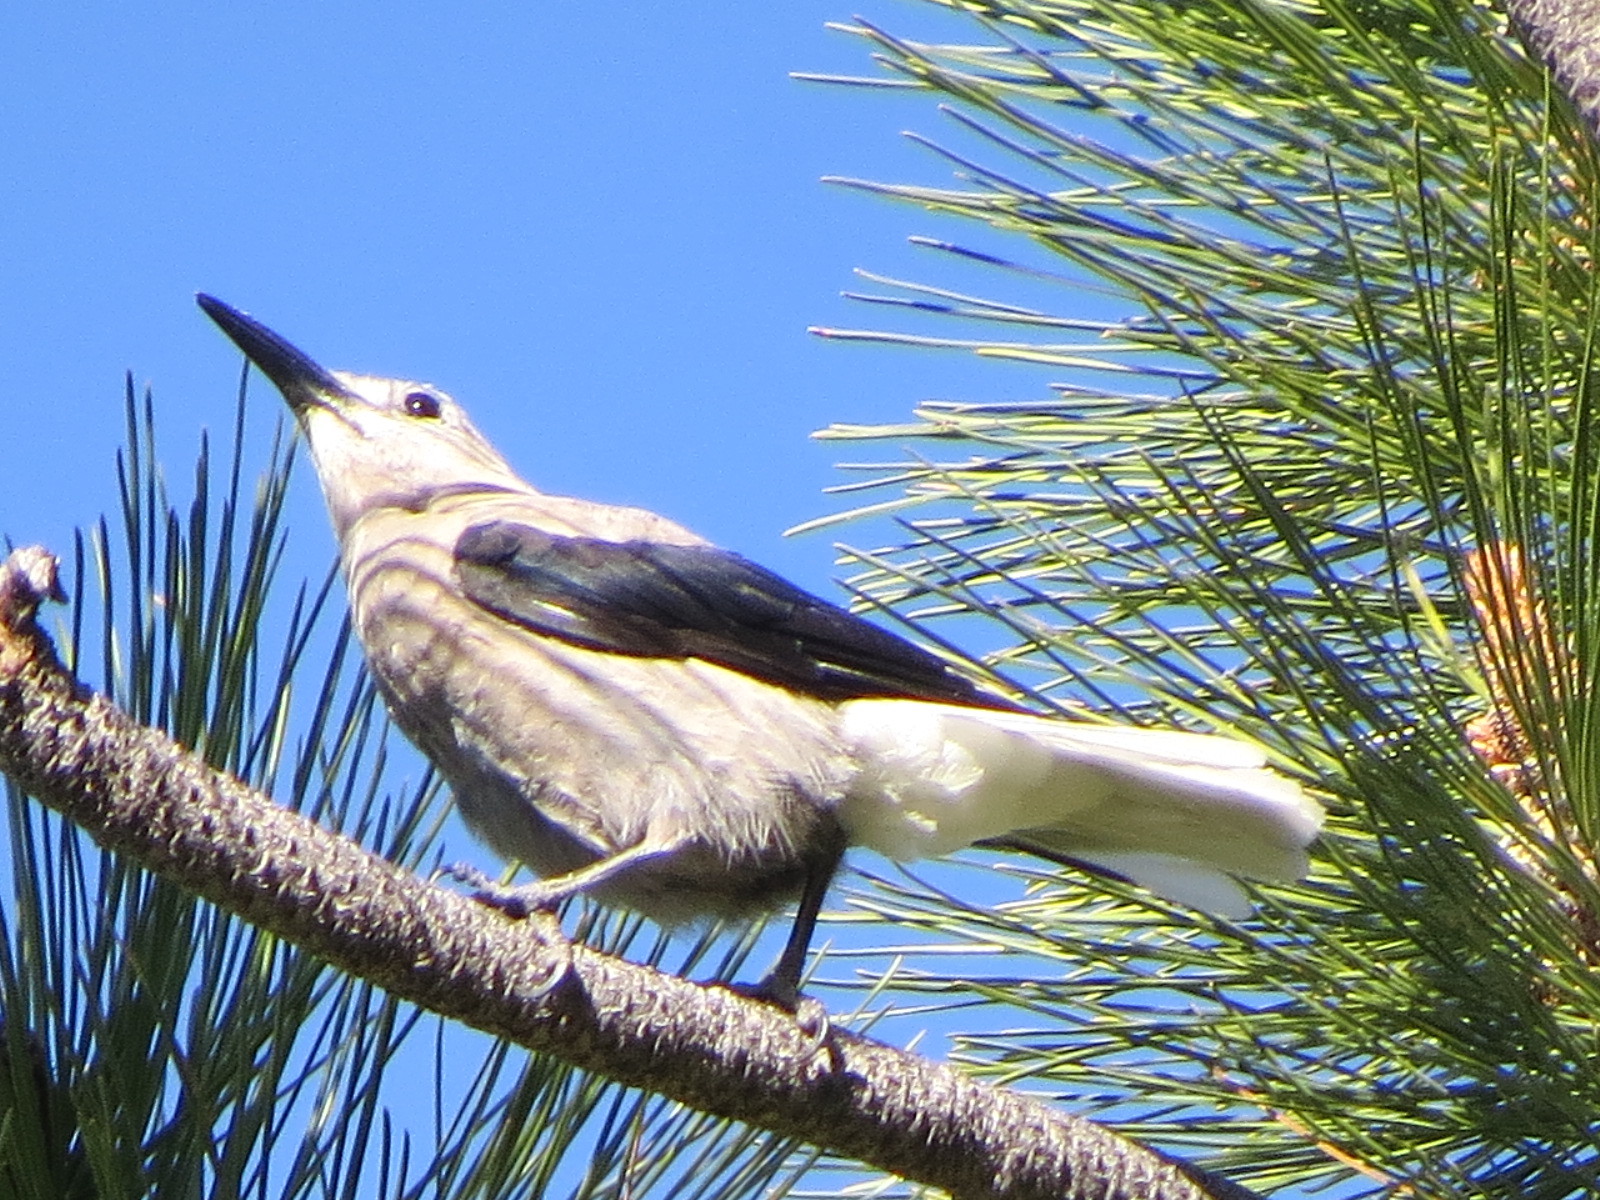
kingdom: Animalia
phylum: Chordata
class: Aves
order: Passeriformes
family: Corvidae
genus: Nucifraga
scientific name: Nucifraga columbiana
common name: Clark's nutcracker
